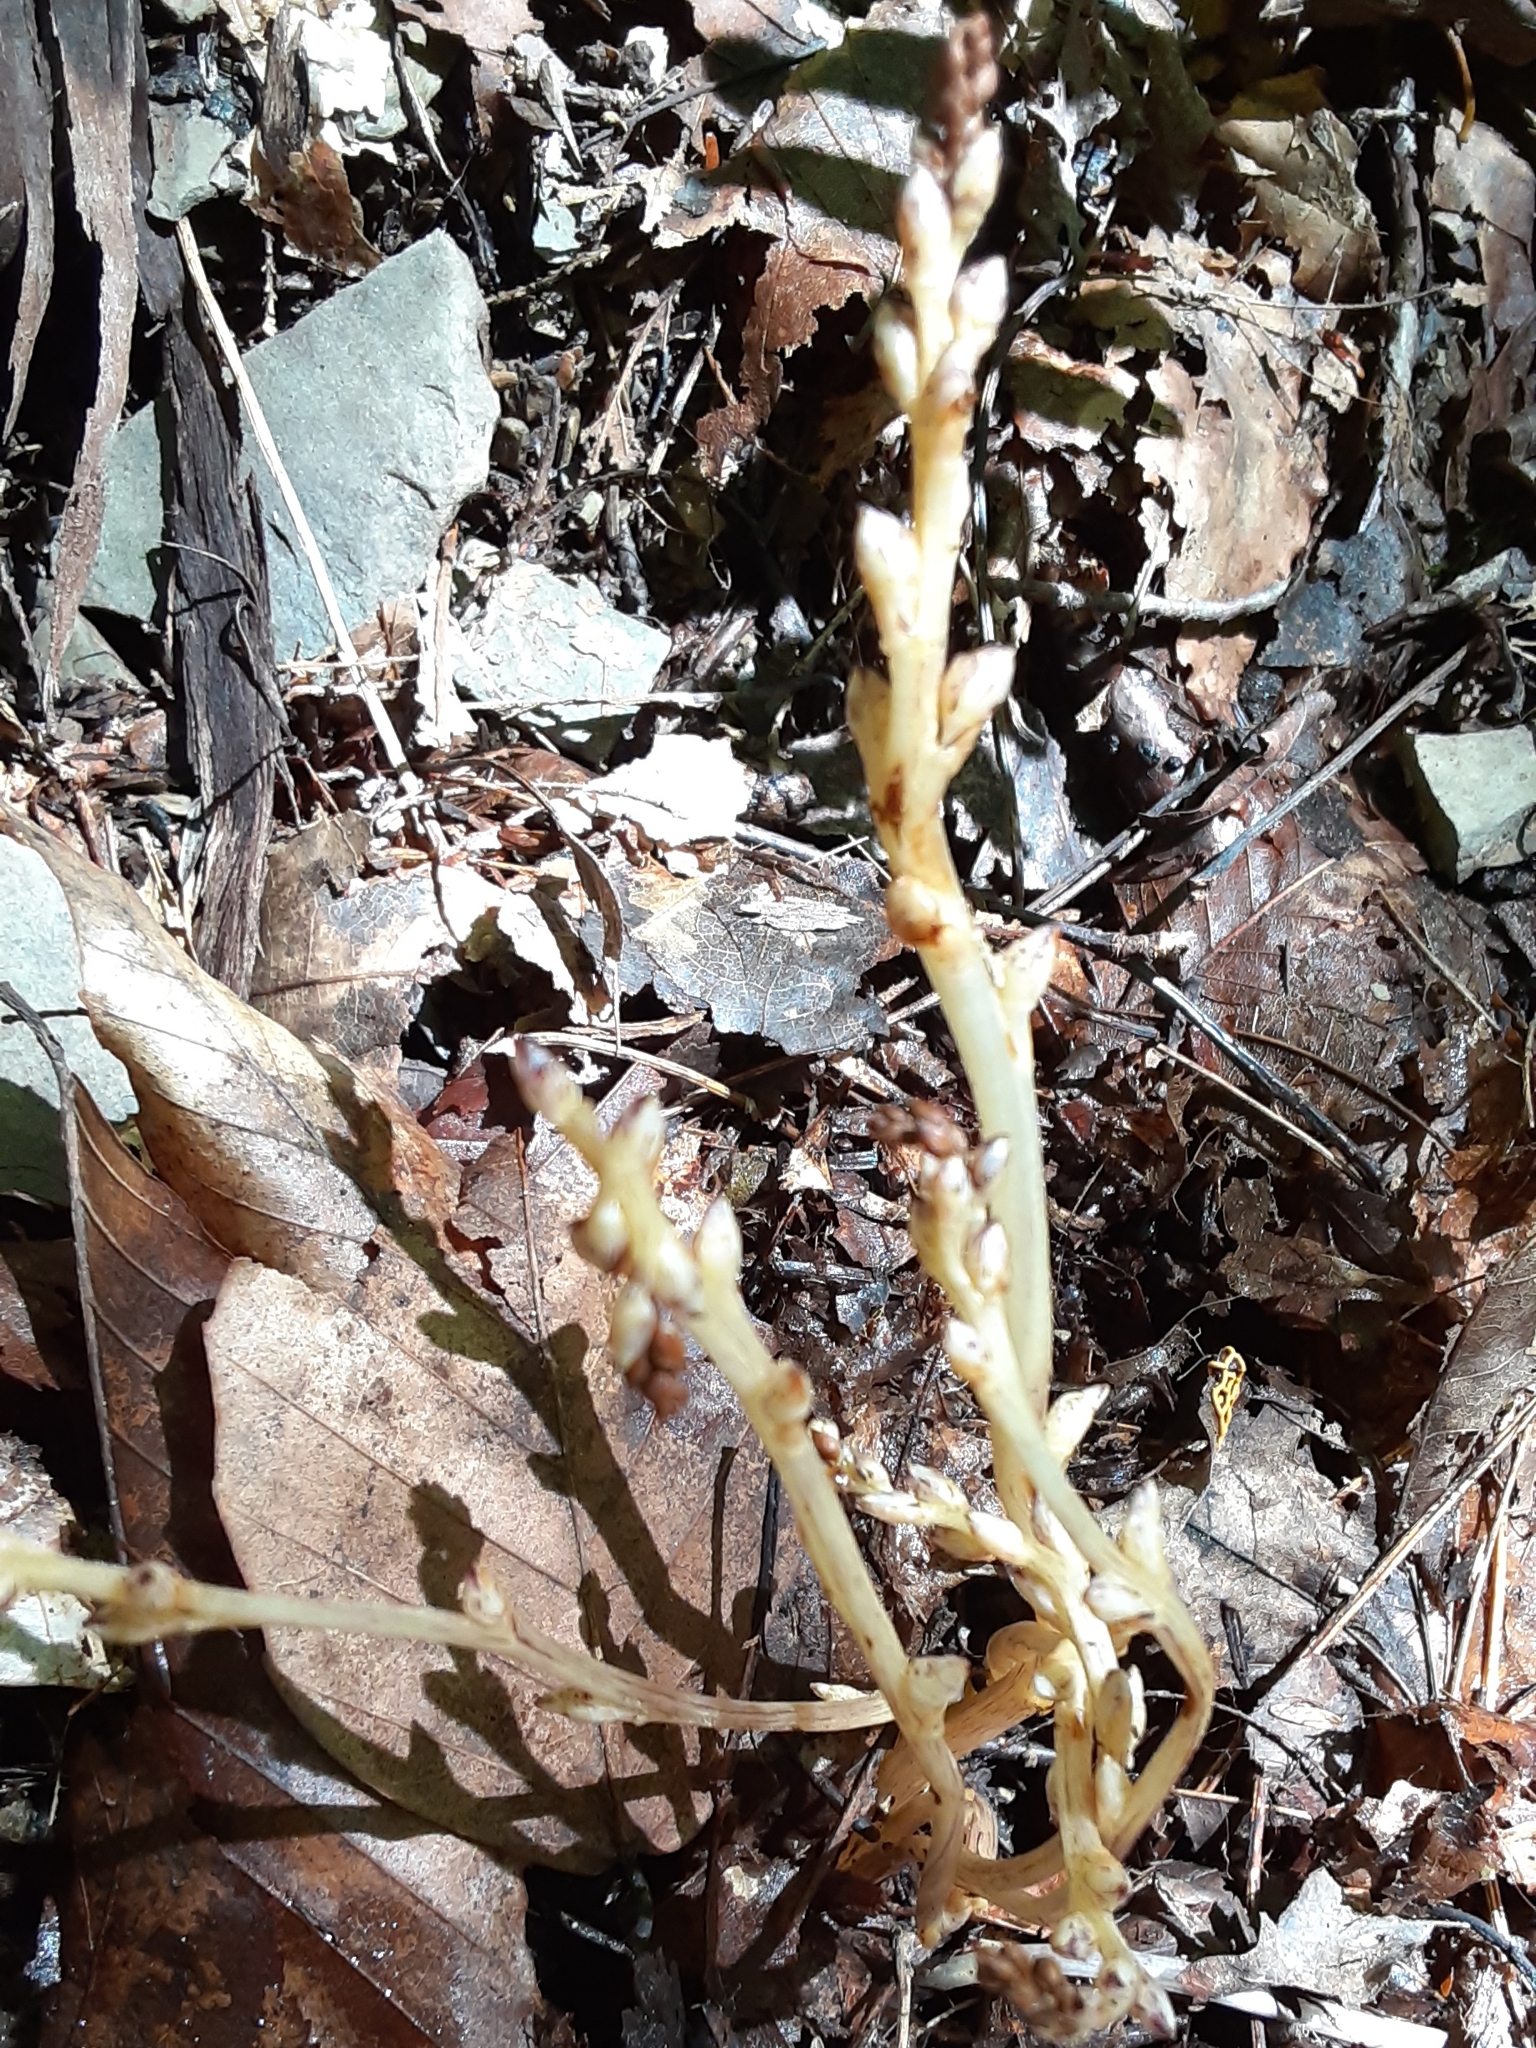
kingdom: Plantae
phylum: Tracheophyta
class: Magnoliopsida
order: Lamiales
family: Orobanchaceae
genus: Epifagus
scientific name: Epifagus virginiana
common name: Beechdrops
